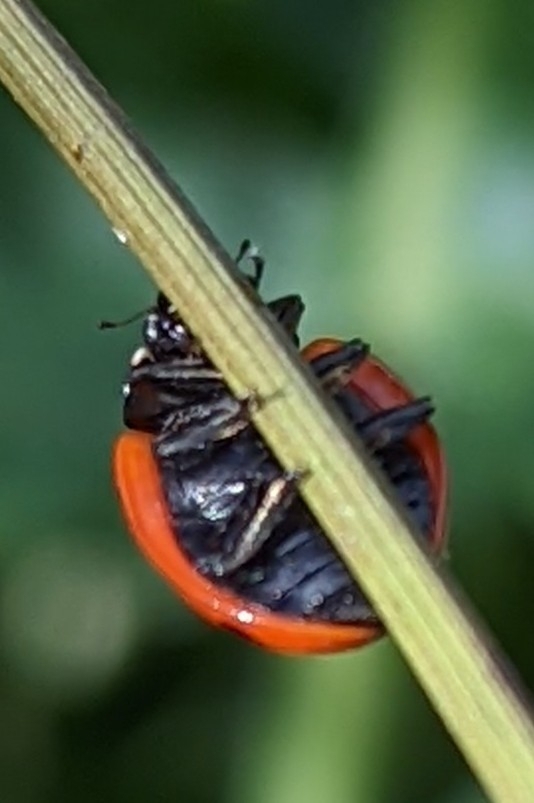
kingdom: Animalia
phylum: Arthropoda
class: Insecta
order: Coleoptera
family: Coccinellidae
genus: Coccinella
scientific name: Coccinella septempunctata
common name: Sevenspotted lady beetle
